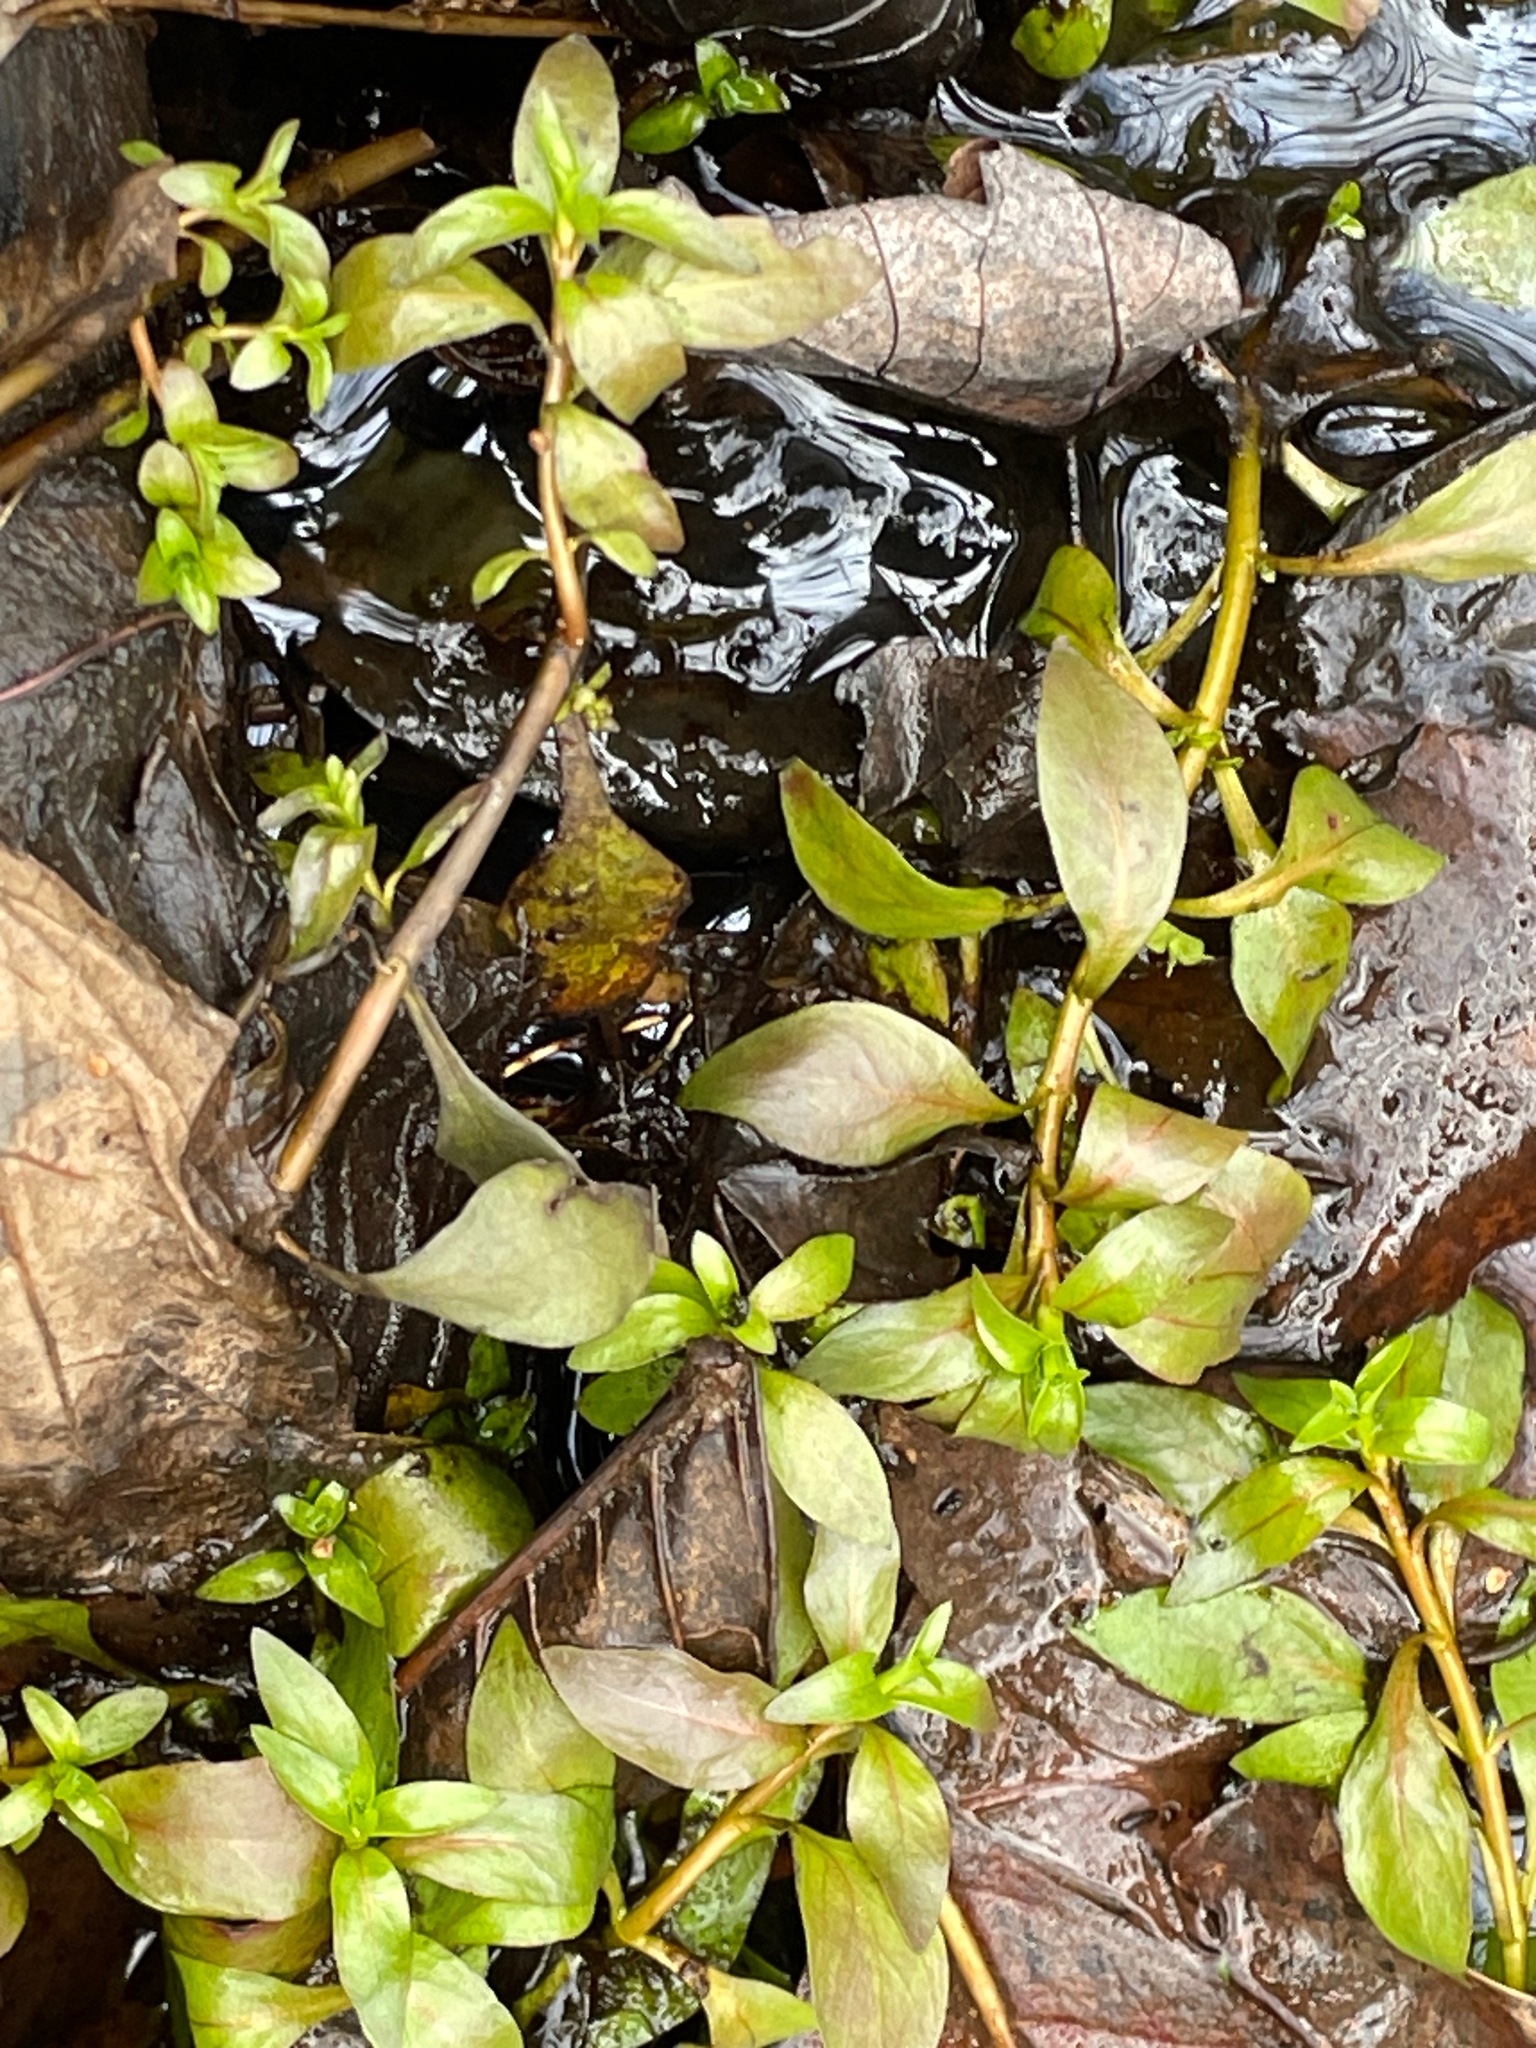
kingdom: Plantae
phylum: Tracheophyta
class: Magnoliopsida
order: Myrtales
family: Onagraceae
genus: Ludwigia
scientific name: Ludwigia palustris
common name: Hampshire-purslane
